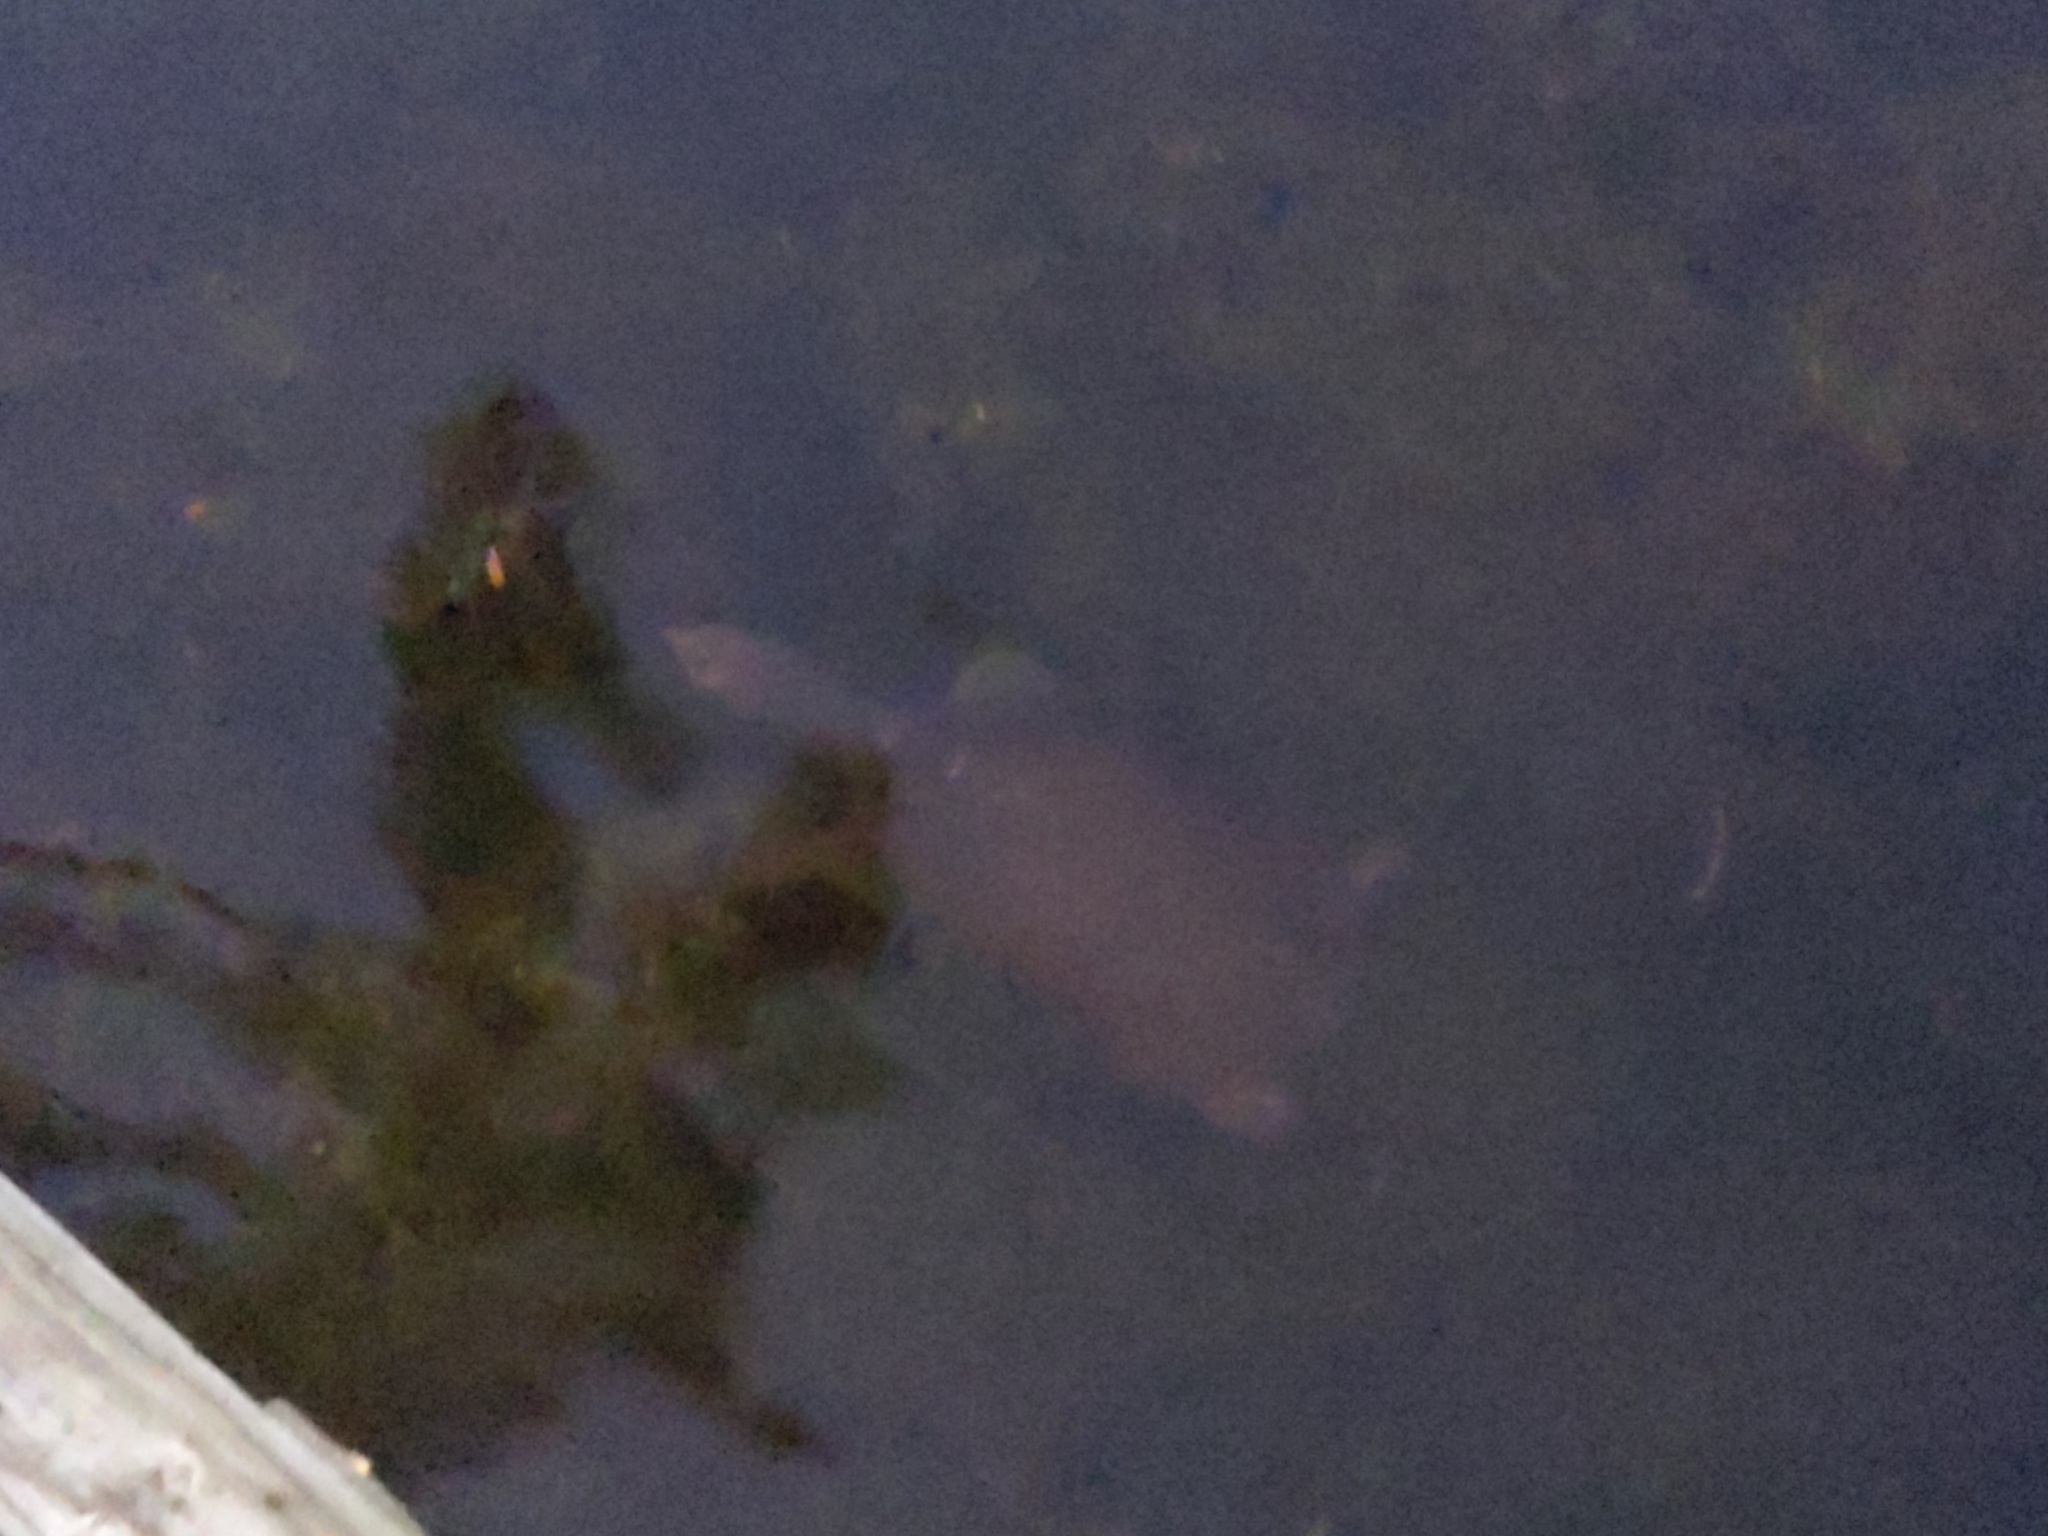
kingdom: Animalia
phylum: Chordata
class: Testudines
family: Trionychidae
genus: Apalone
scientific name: Apalone ferox
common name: Florida softshell turtle
